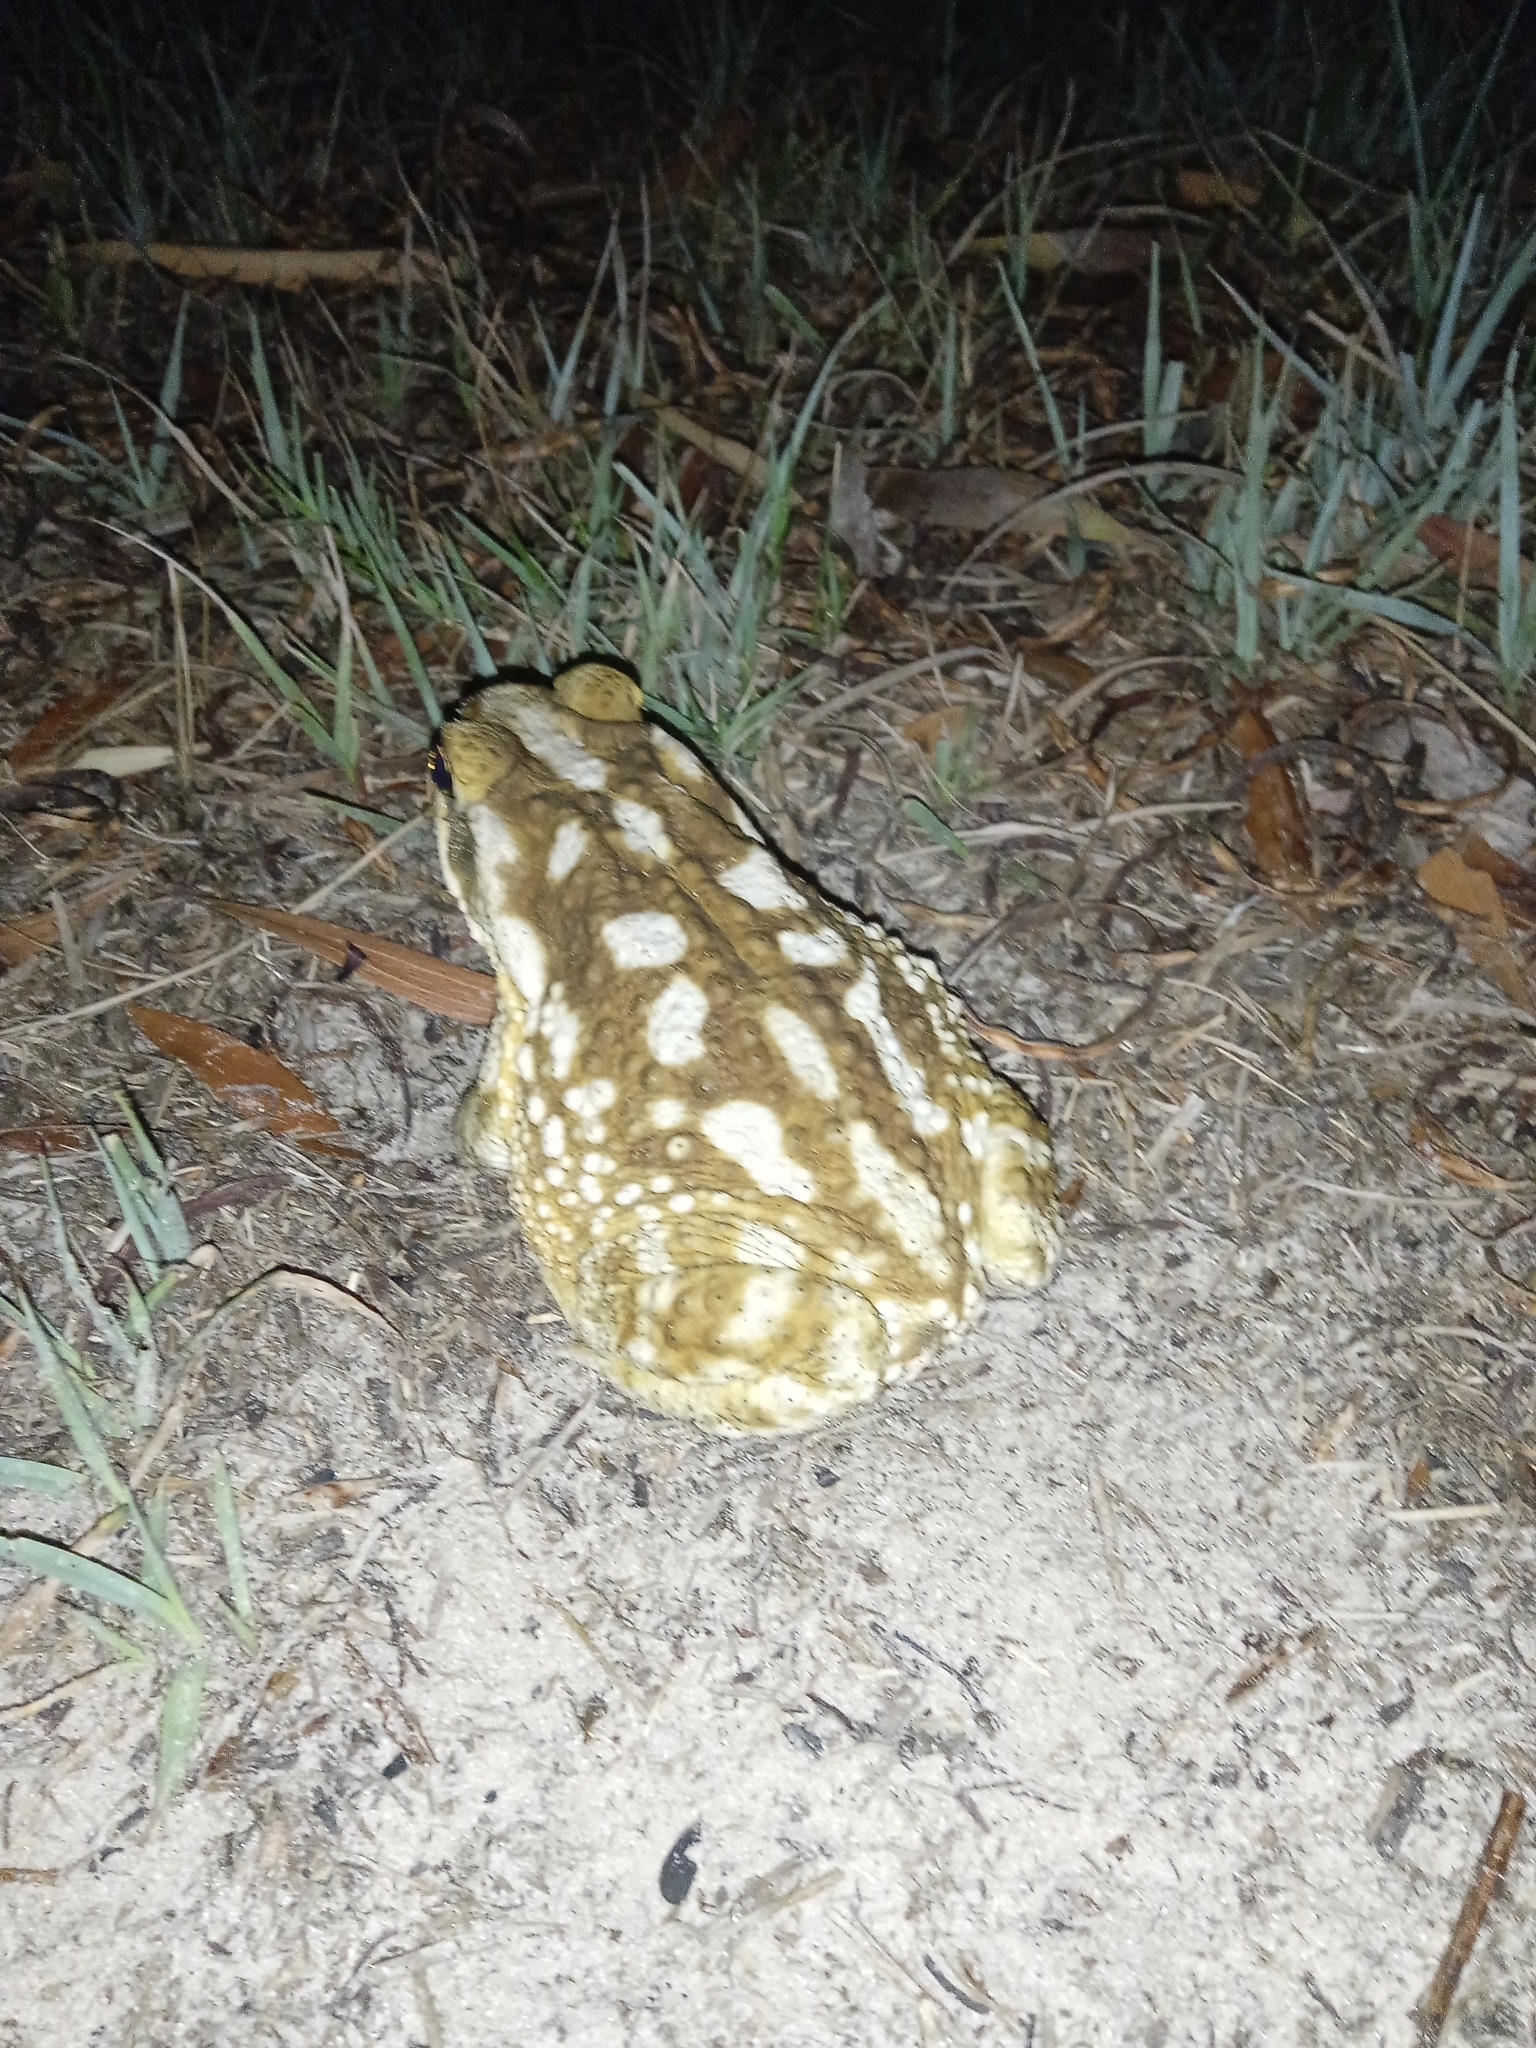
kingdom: Animalia
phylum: Chordata
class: Amphibia
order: Anura
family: Bufonidae
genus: Rhinella
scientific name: Rhinella arenarum
